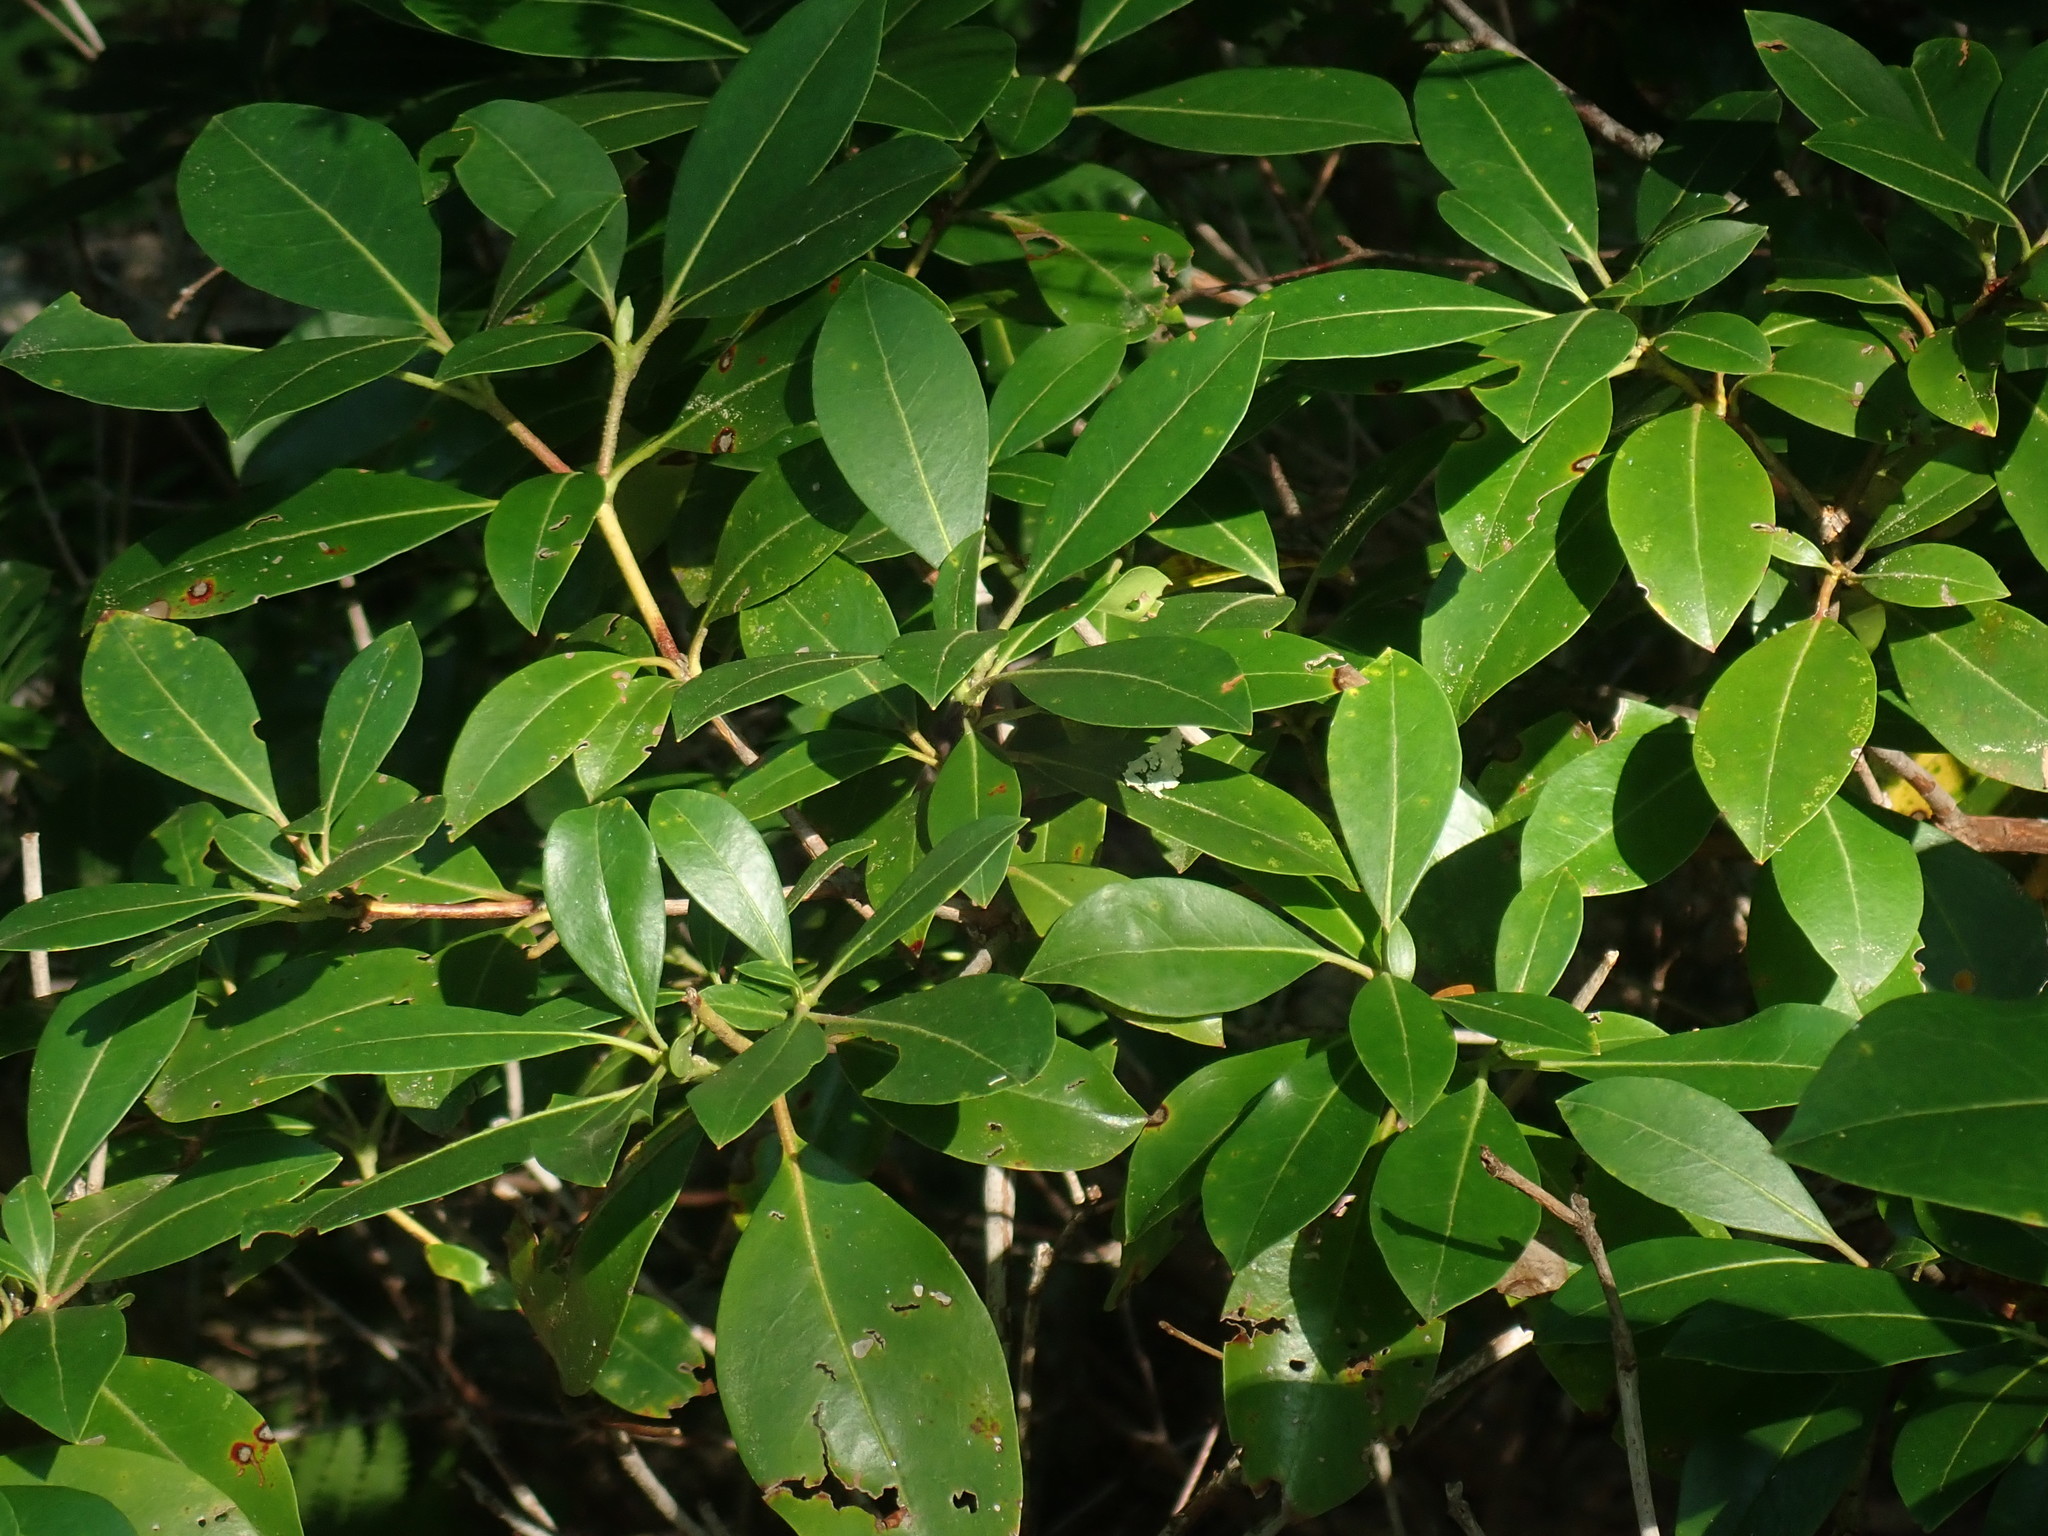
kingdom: Plantae
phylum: Tracheophyta
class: Magnoliopsida
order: Ericales
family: Ericaceae
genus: Kalmia
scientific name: Kalmia latifolia
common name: Mountain-laurel
